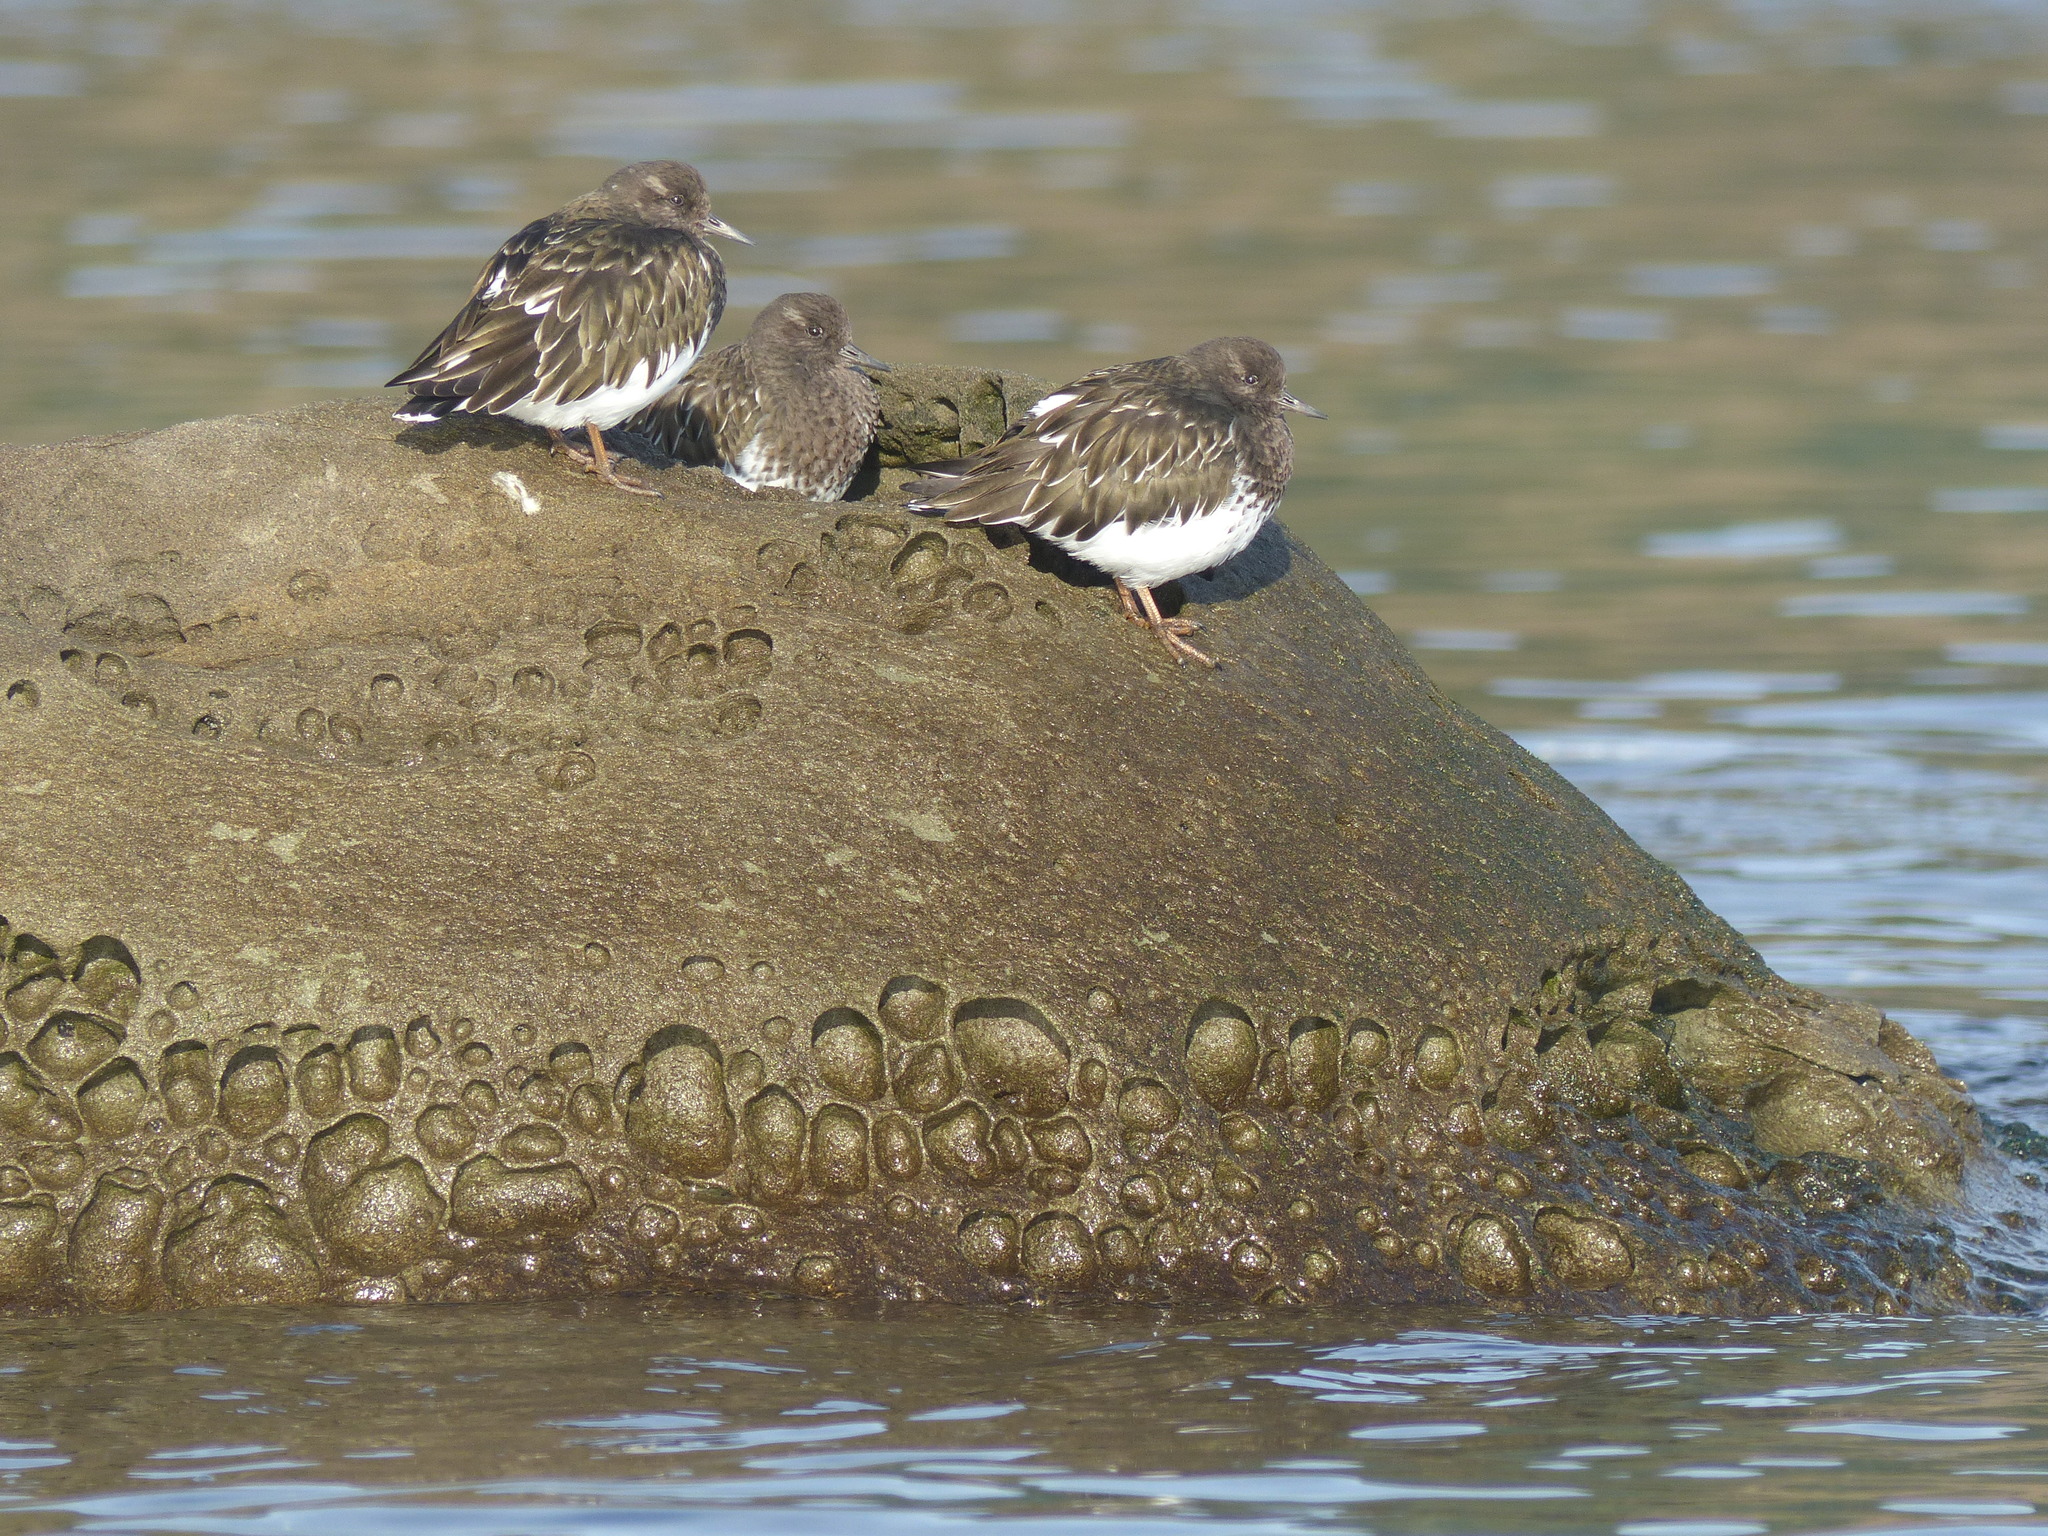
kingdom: Animalia
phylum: Chordata
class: Aves
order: Charadriiformes
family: Scolopacidae
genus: Arenaria
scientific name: Arenaria melanocephala
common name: Black turnstone
